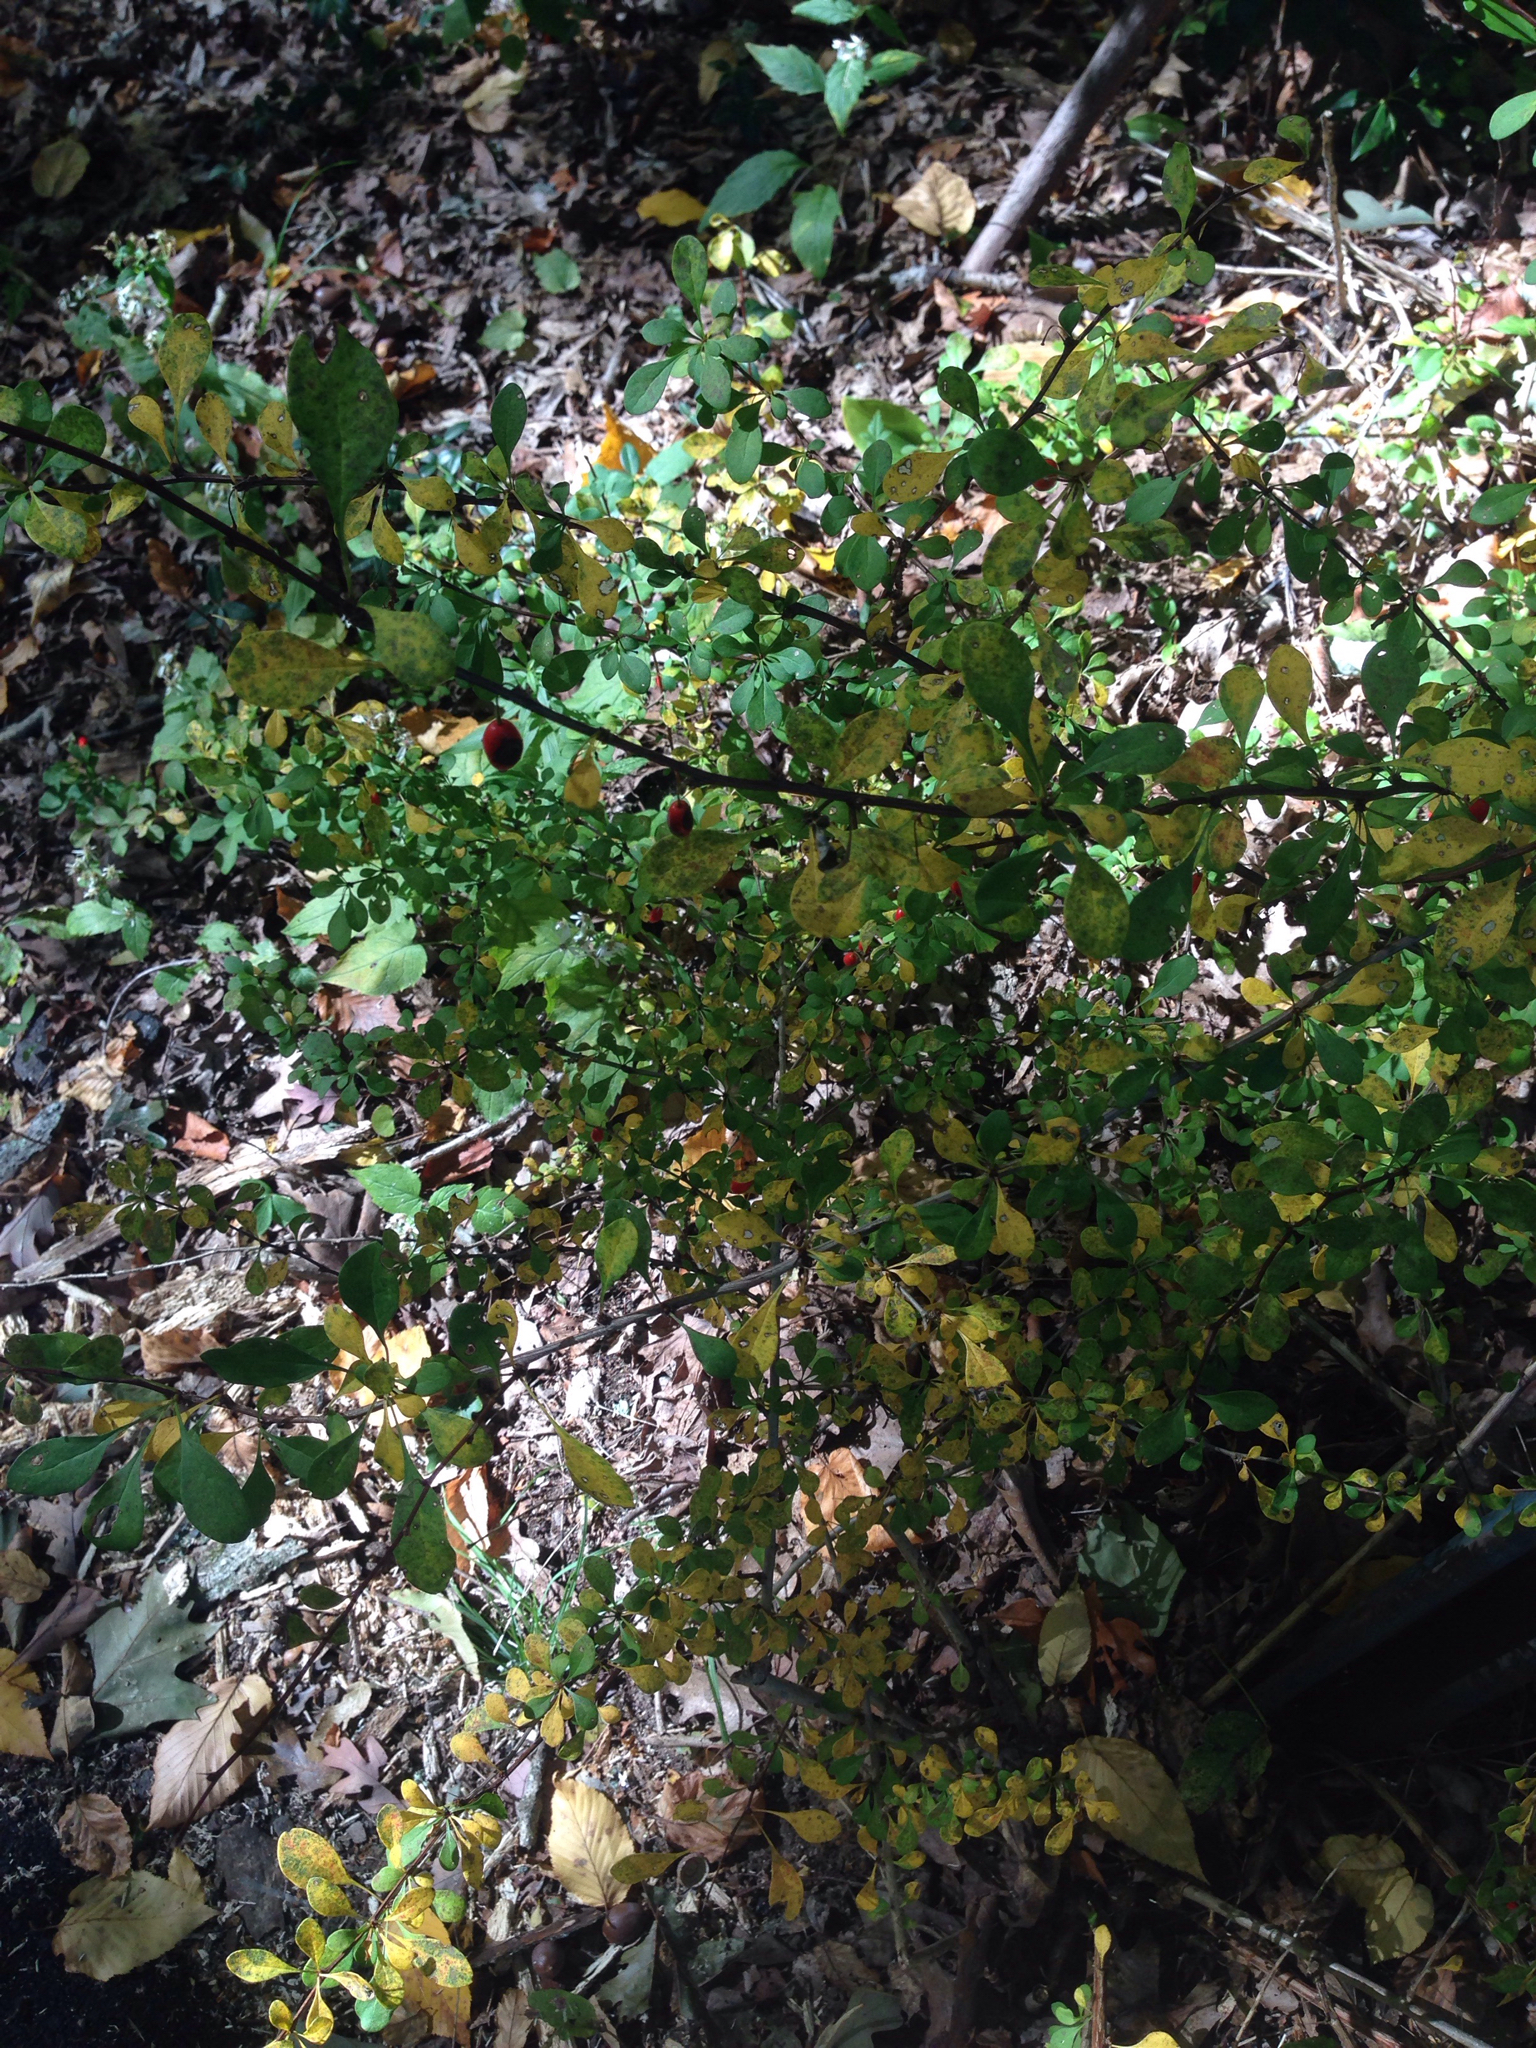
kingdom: Plantae
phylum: Tracheophyta
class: Magnoliopsida
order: Ranunculales
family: Berberidaceae
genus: Berberis
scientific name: Berberis thunbergii
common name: Japanese barberry
